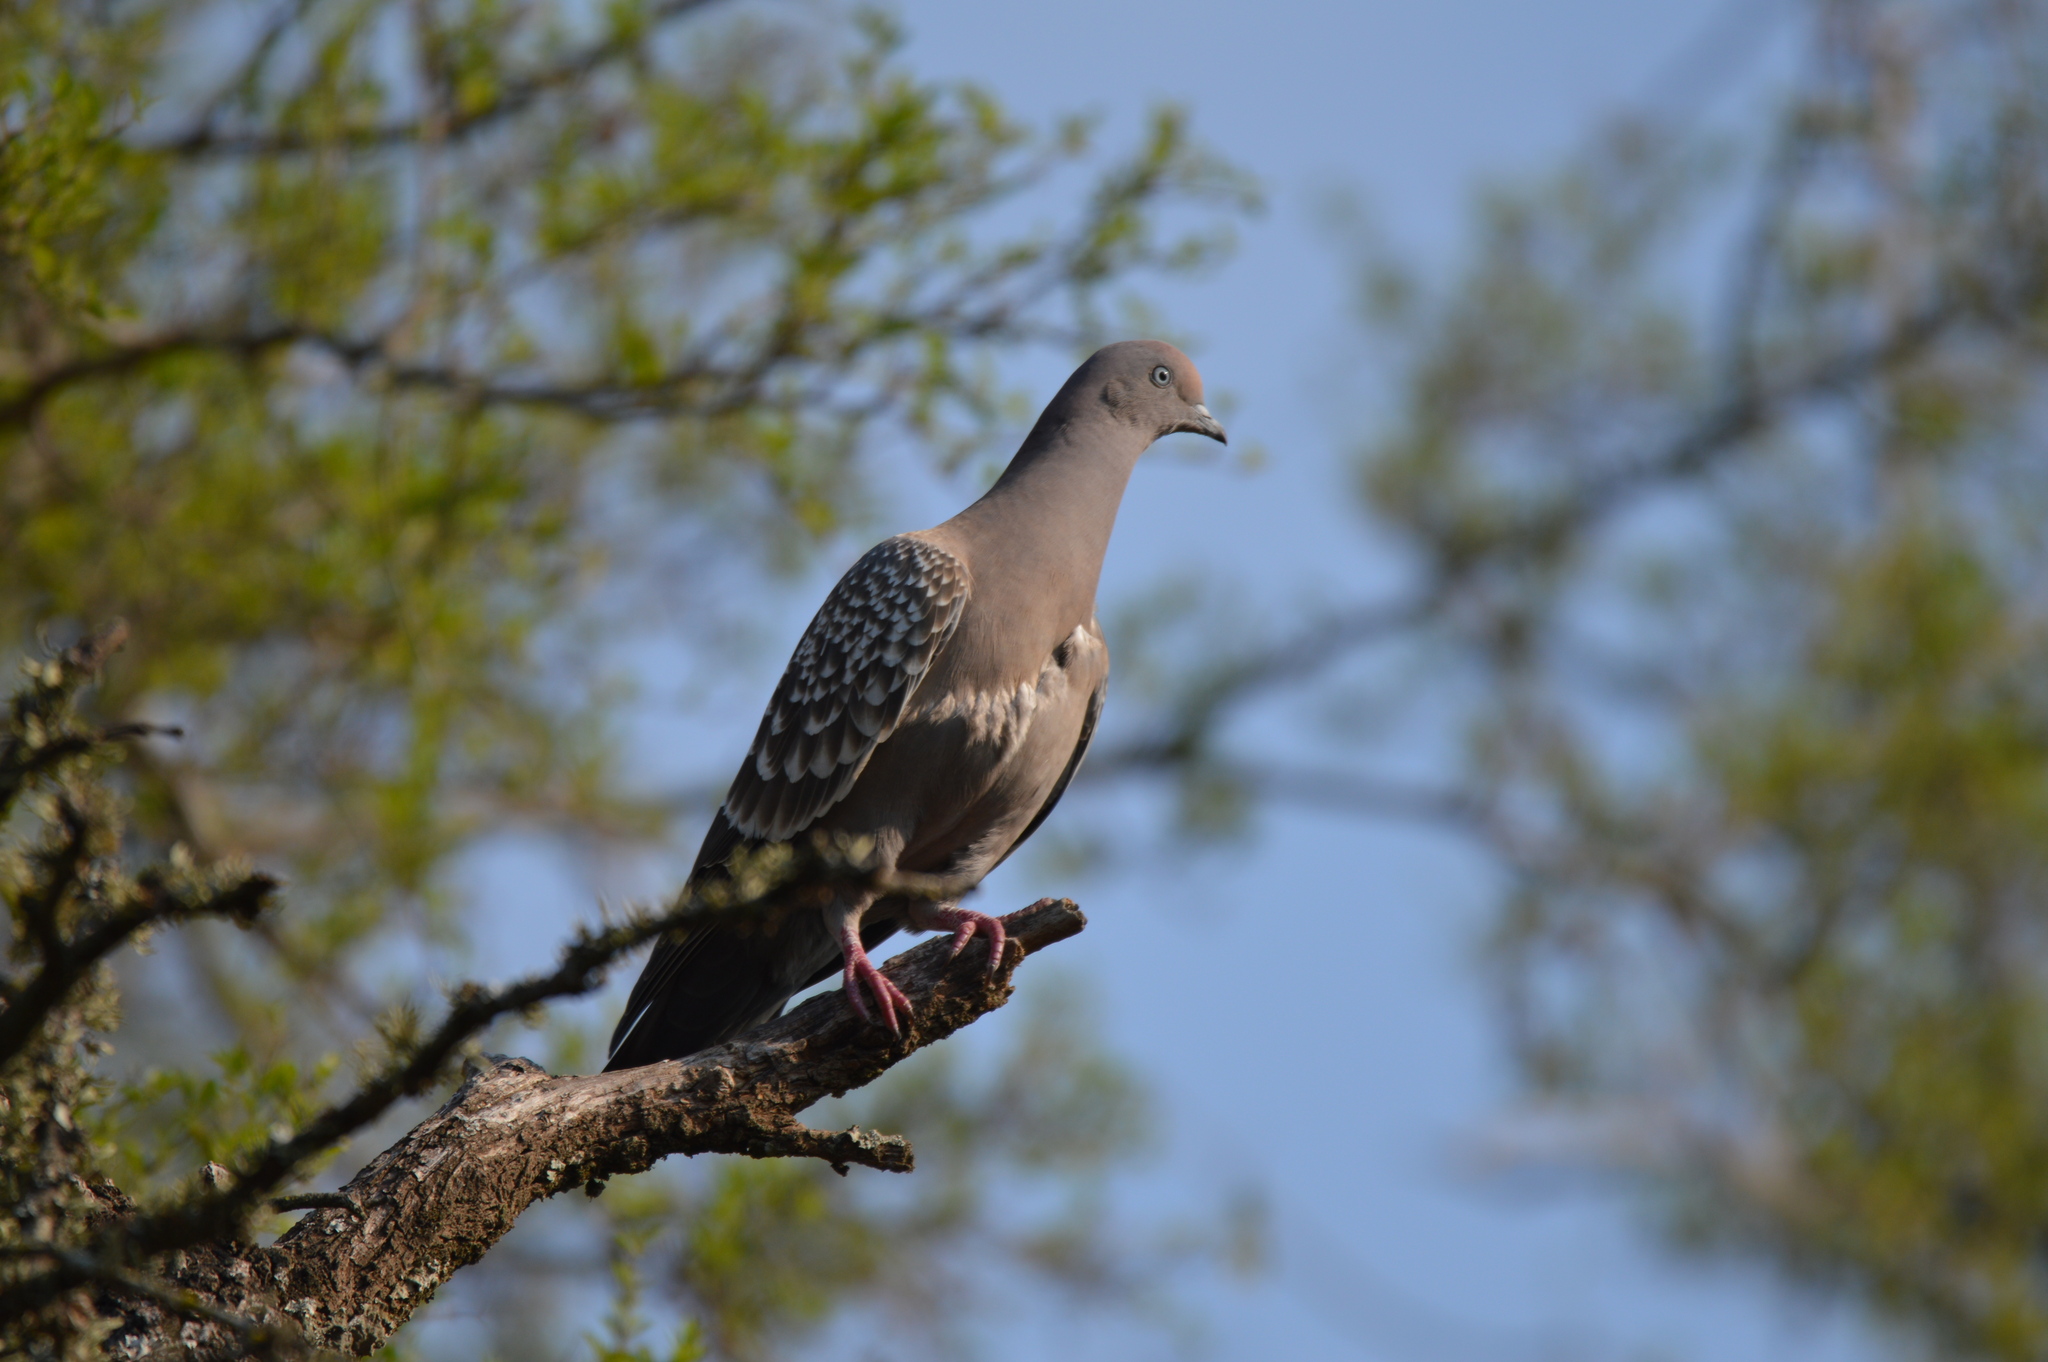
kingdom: Animalia
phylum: Chordata
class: Aves
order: Columbiformes
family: Columbidae
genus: Patagioenas
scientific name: Patagioenas maculosa
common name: Spot-winged pigeon
